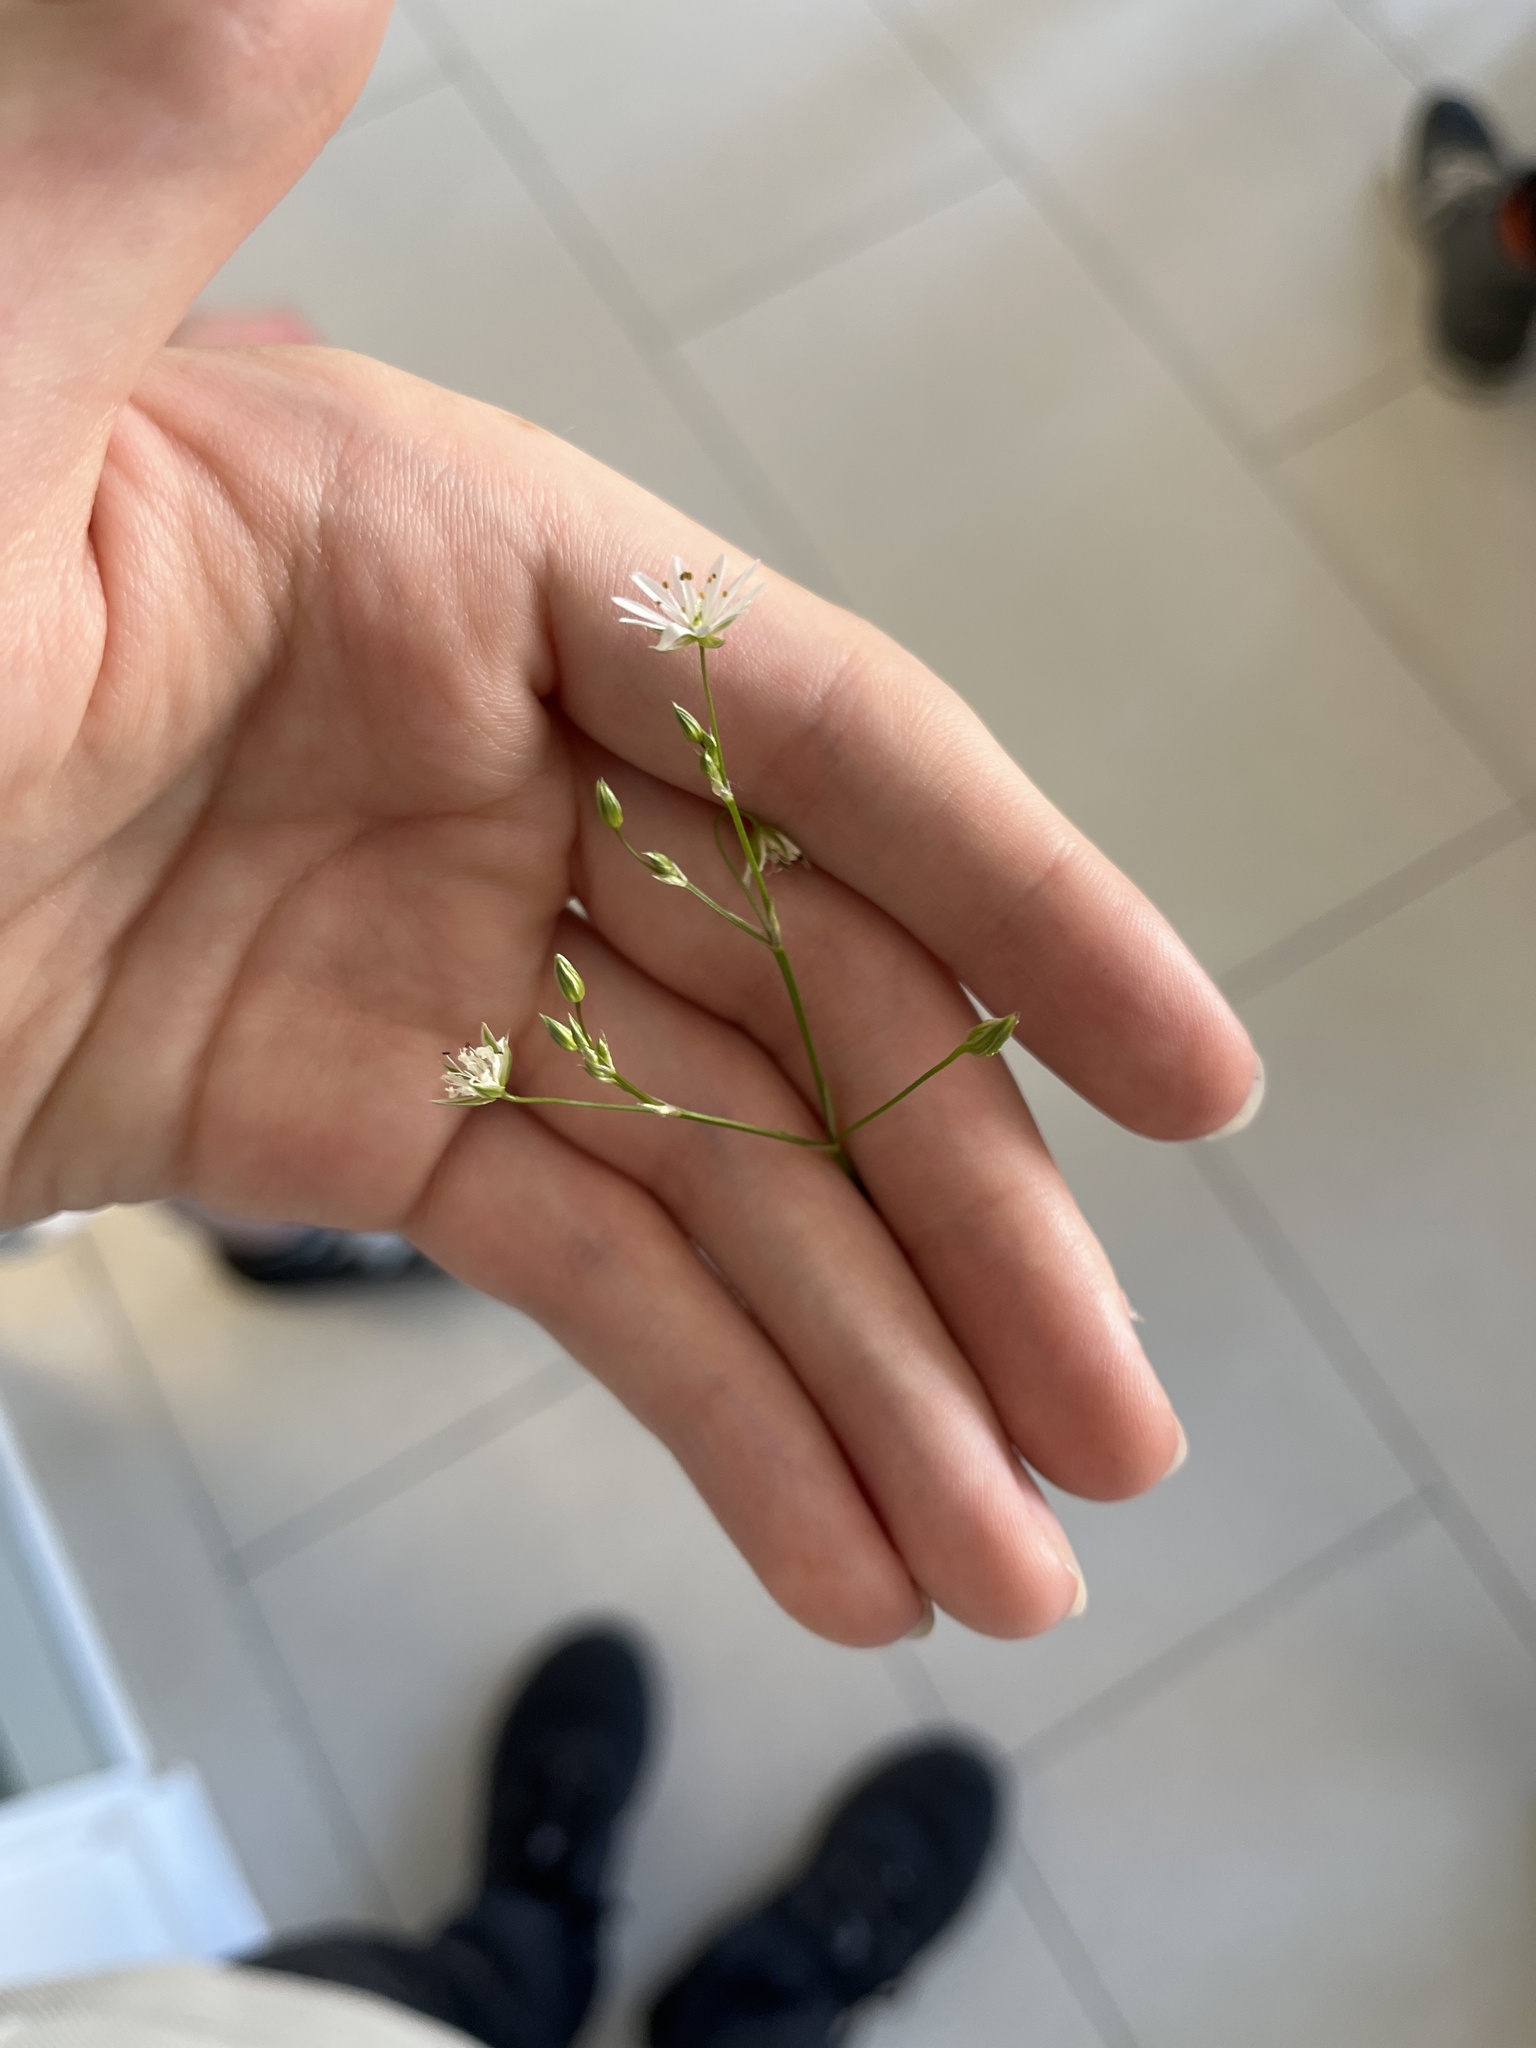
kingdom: Plantae
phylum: Tracheophyta
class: Magnoliopsida
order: Caryophyllales
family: Caryophyllaceae
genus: Stellaria
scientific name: Stellaria graminea
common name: Grass-like starwort
